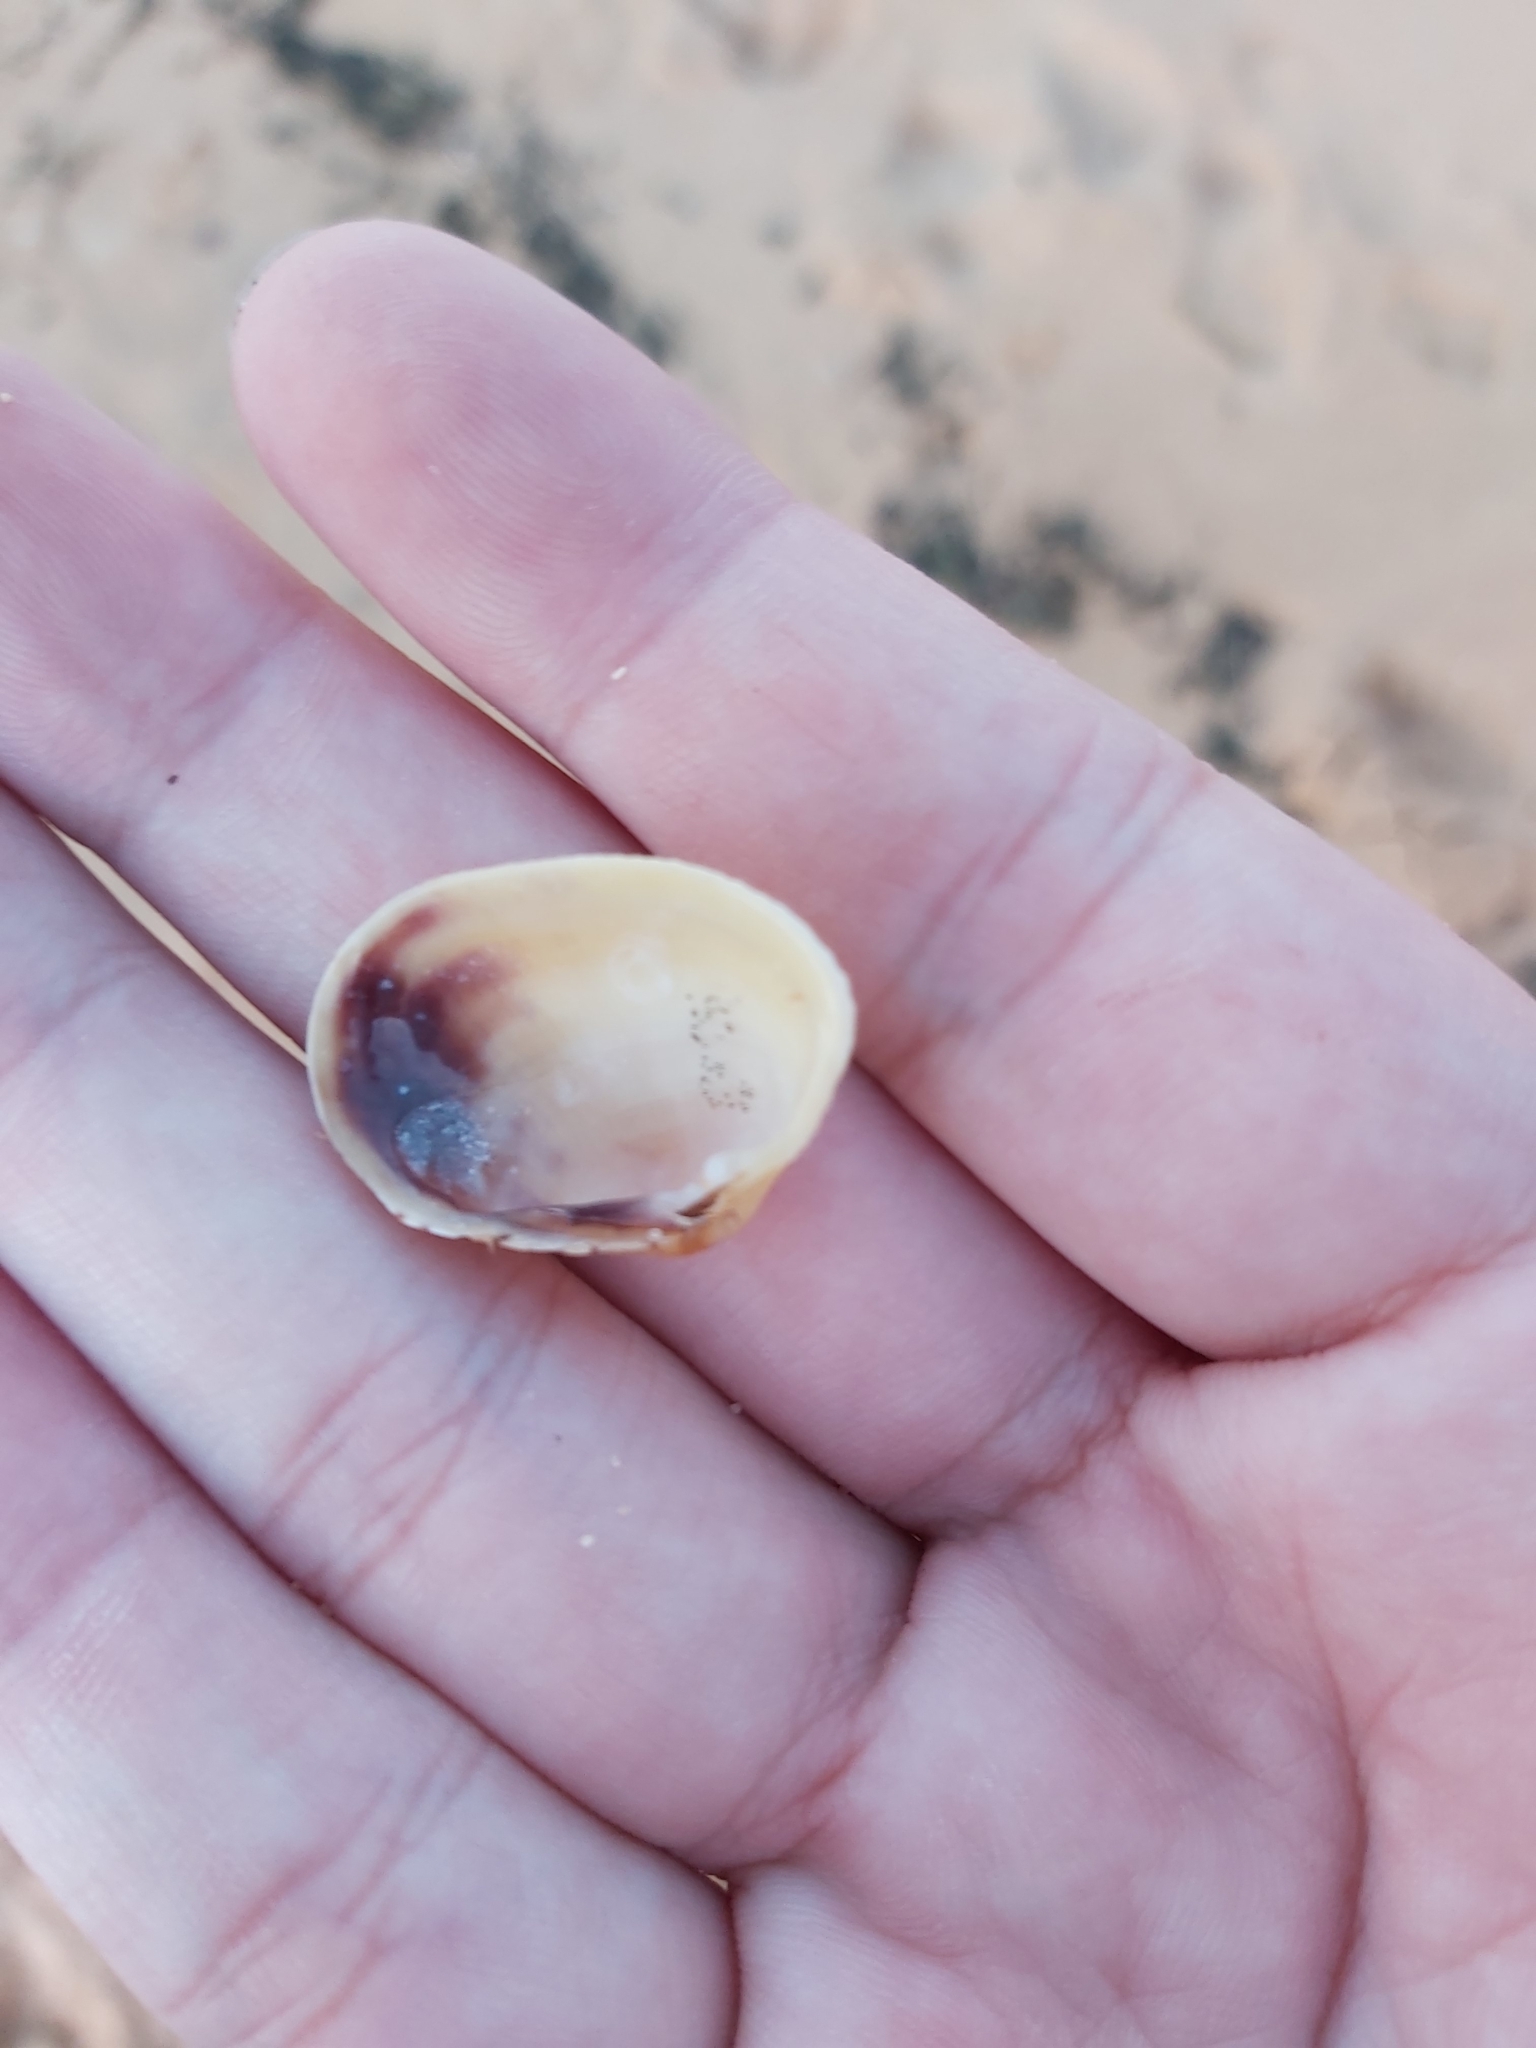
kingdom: Animalia
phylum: Mollusca
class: Bivalvia
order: Venerida
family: Veneridae
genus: Irus
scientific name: Irus crenatus
